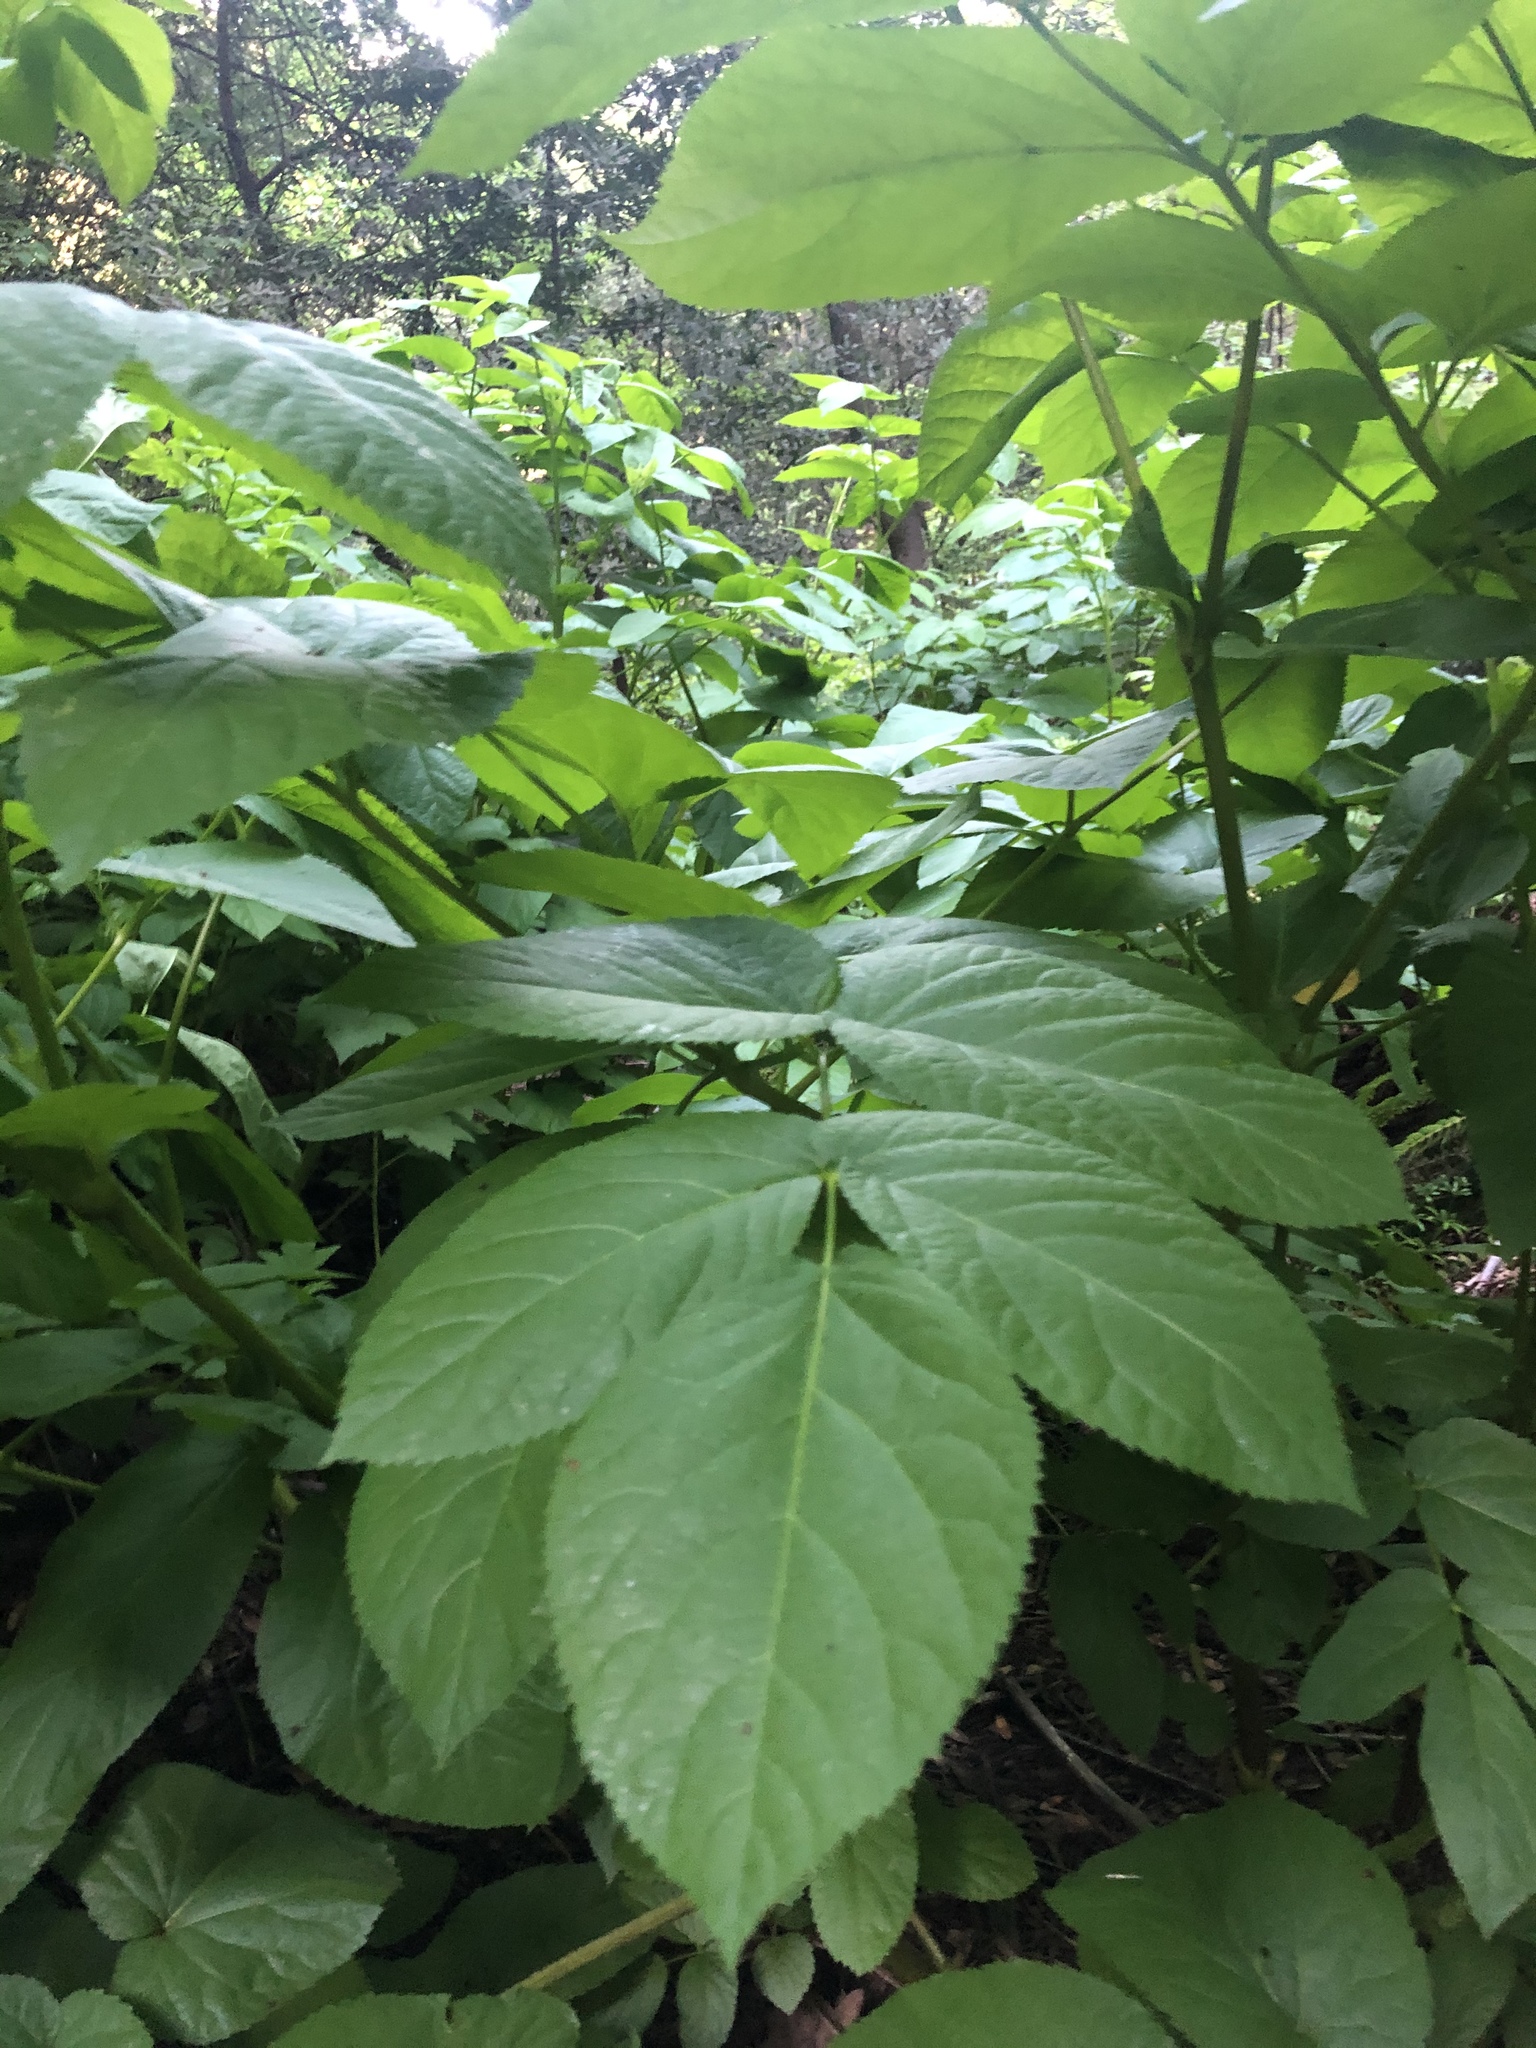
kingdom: Plantae
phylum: Tracheophyta
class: Magnoliopsida
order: Apiales
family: Araliaceae
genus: Aralia
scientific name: Aralia californica
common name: California-ginseng
